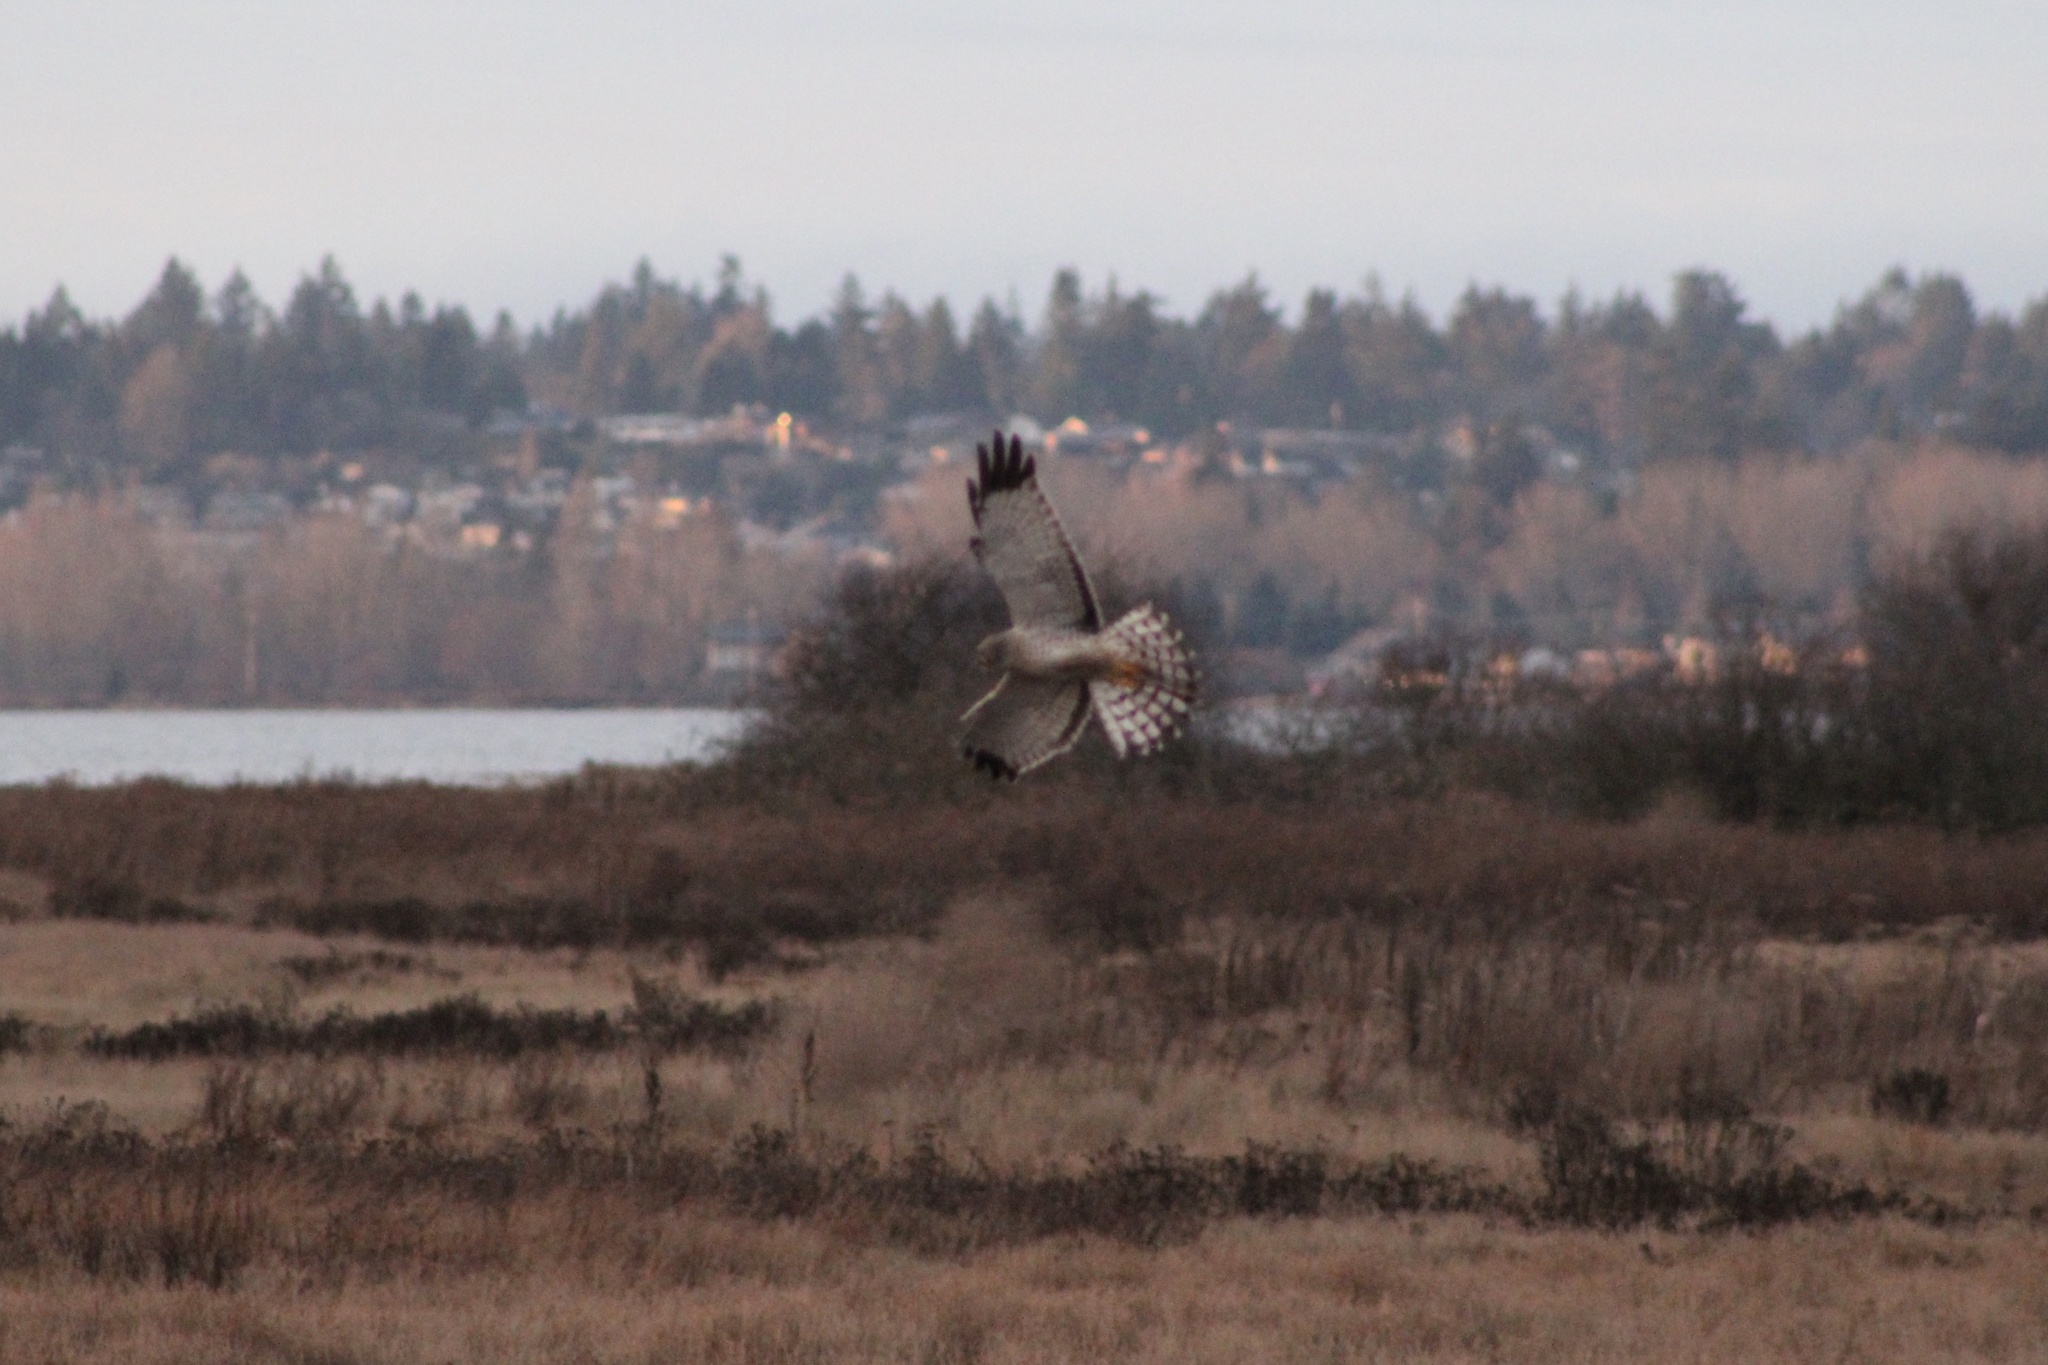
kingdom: Animalia
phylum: Chordata
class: Aves
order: Accipitriformes
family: Accipitridae
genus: Circus
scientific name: Circus cyaneus
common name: Hen harrier
